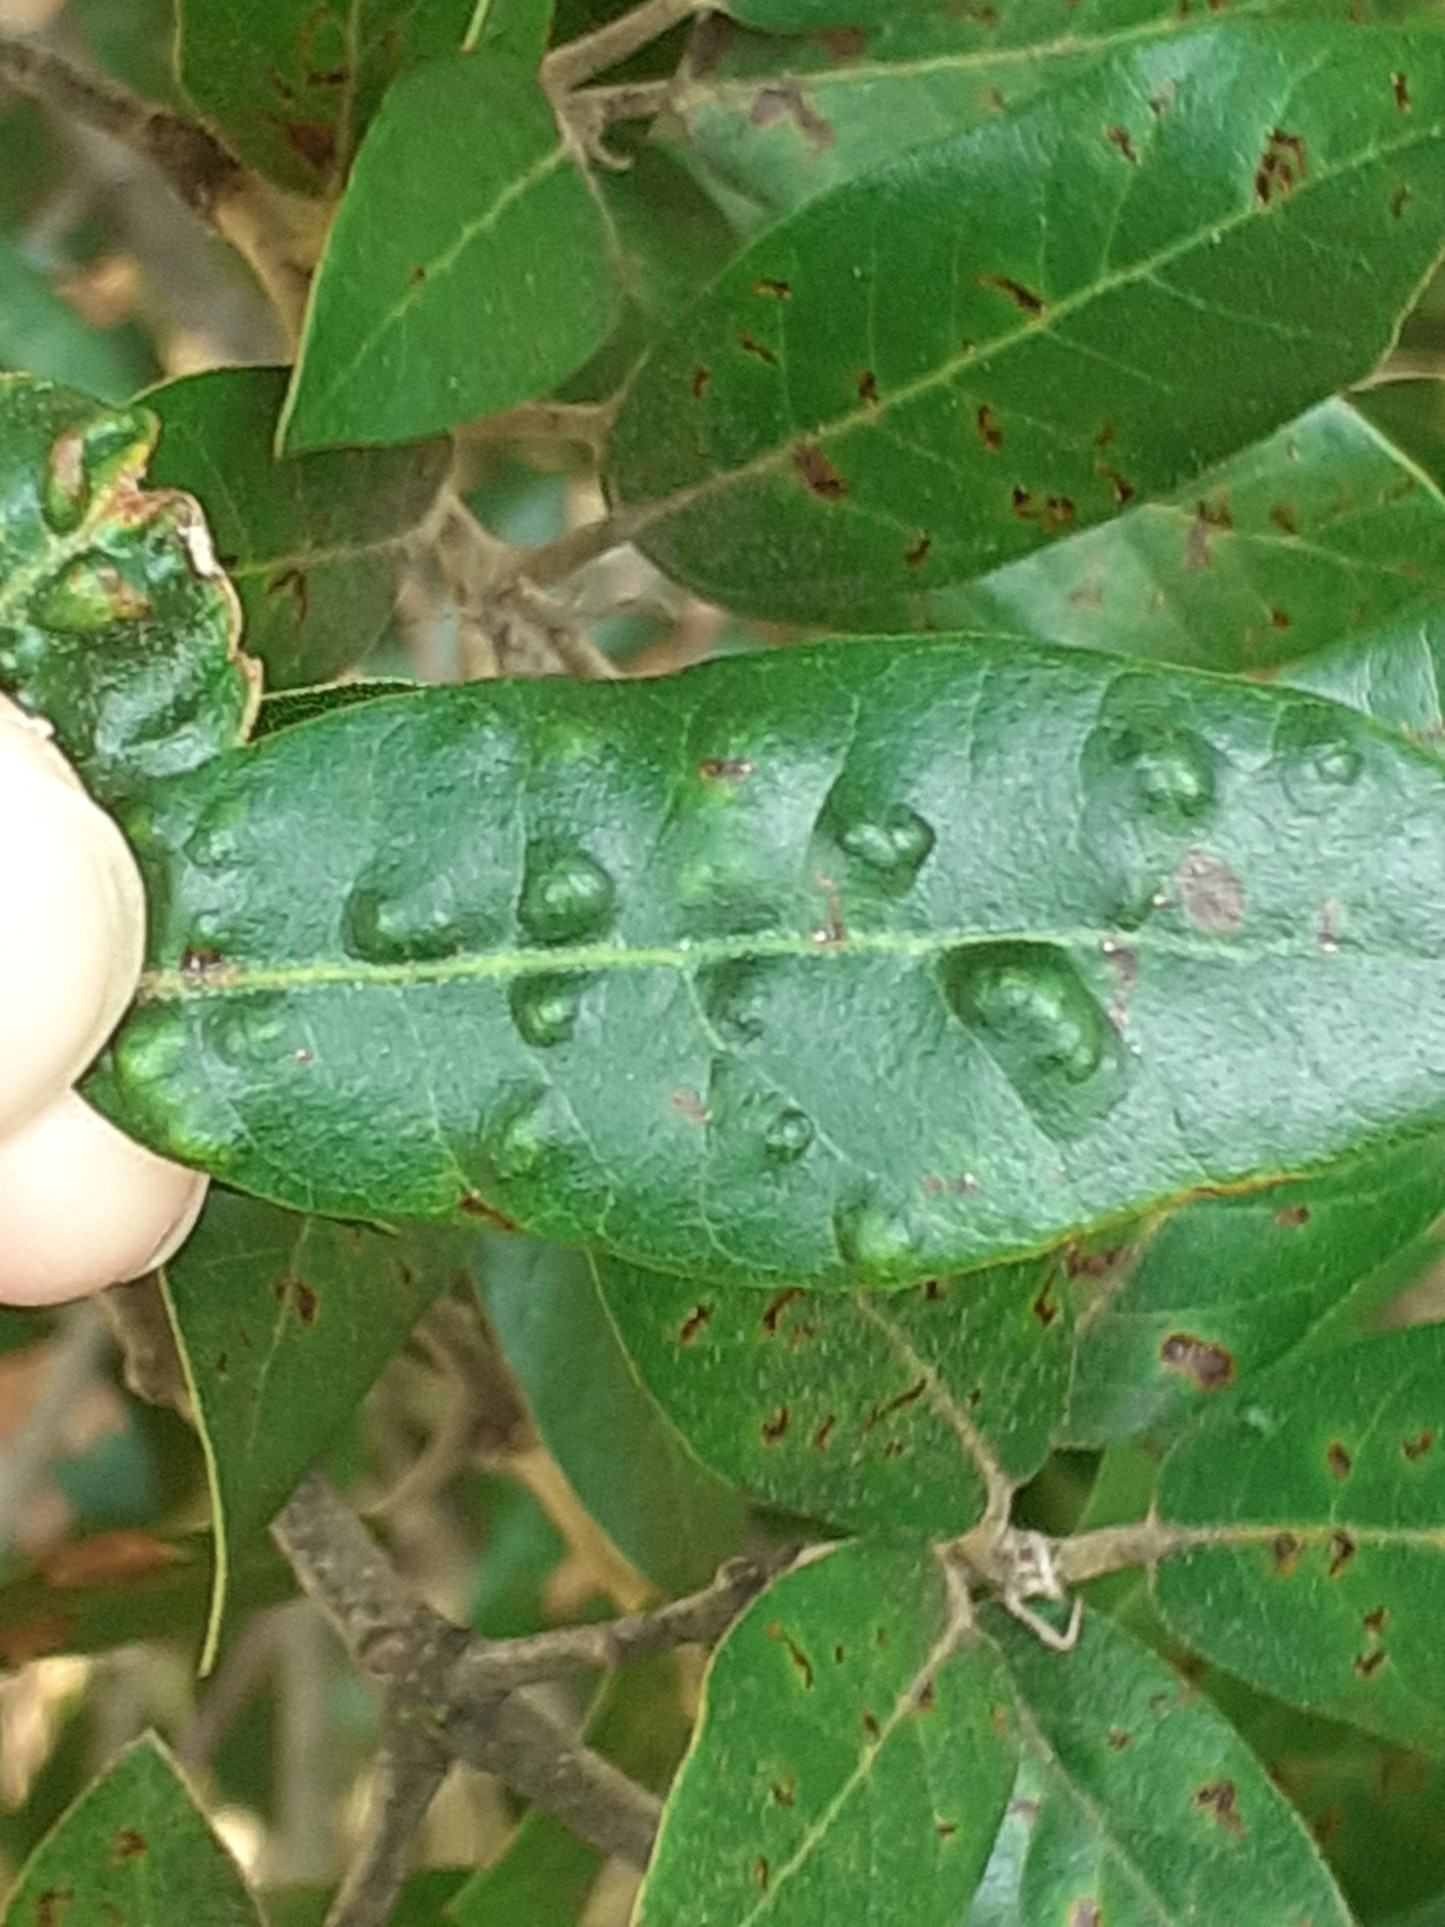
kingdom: Animalia
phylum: Arthropoda
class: Arachnida
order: Trombidiformes
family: Eriophyidae
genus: Aceria
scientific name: Aceria ilicis
